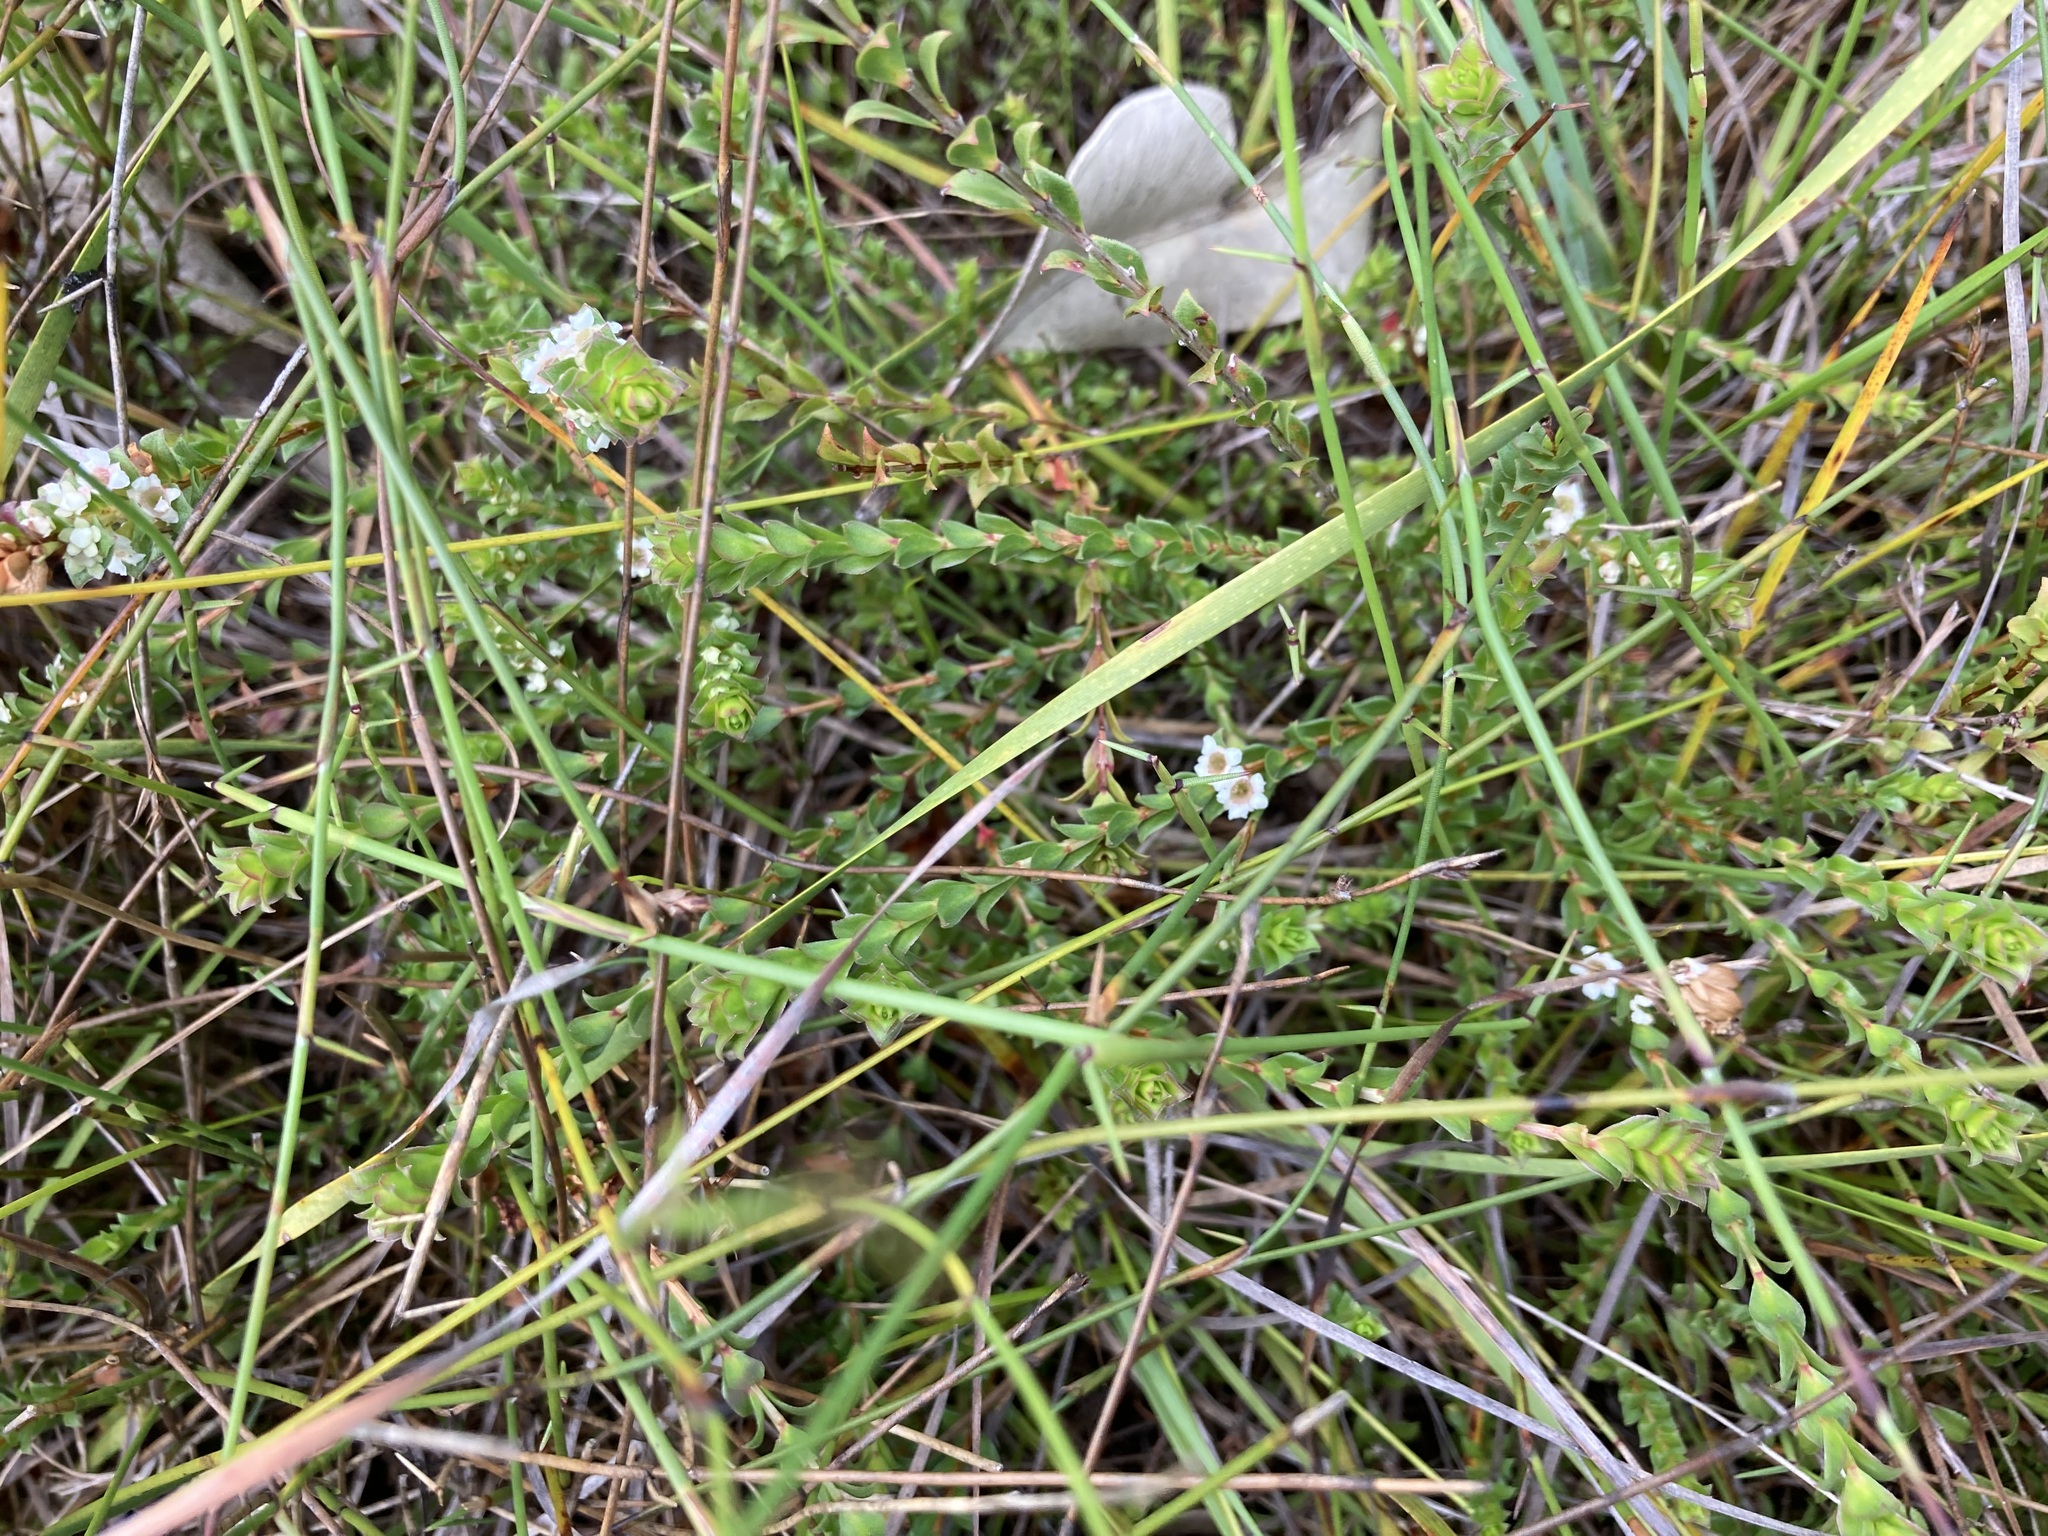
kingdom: Plantae
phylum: Tracheophyta
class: Magnoliopsida
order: Myrtales
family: Myrtaceae
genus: Baeckea
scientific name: Baeckea imbricata
